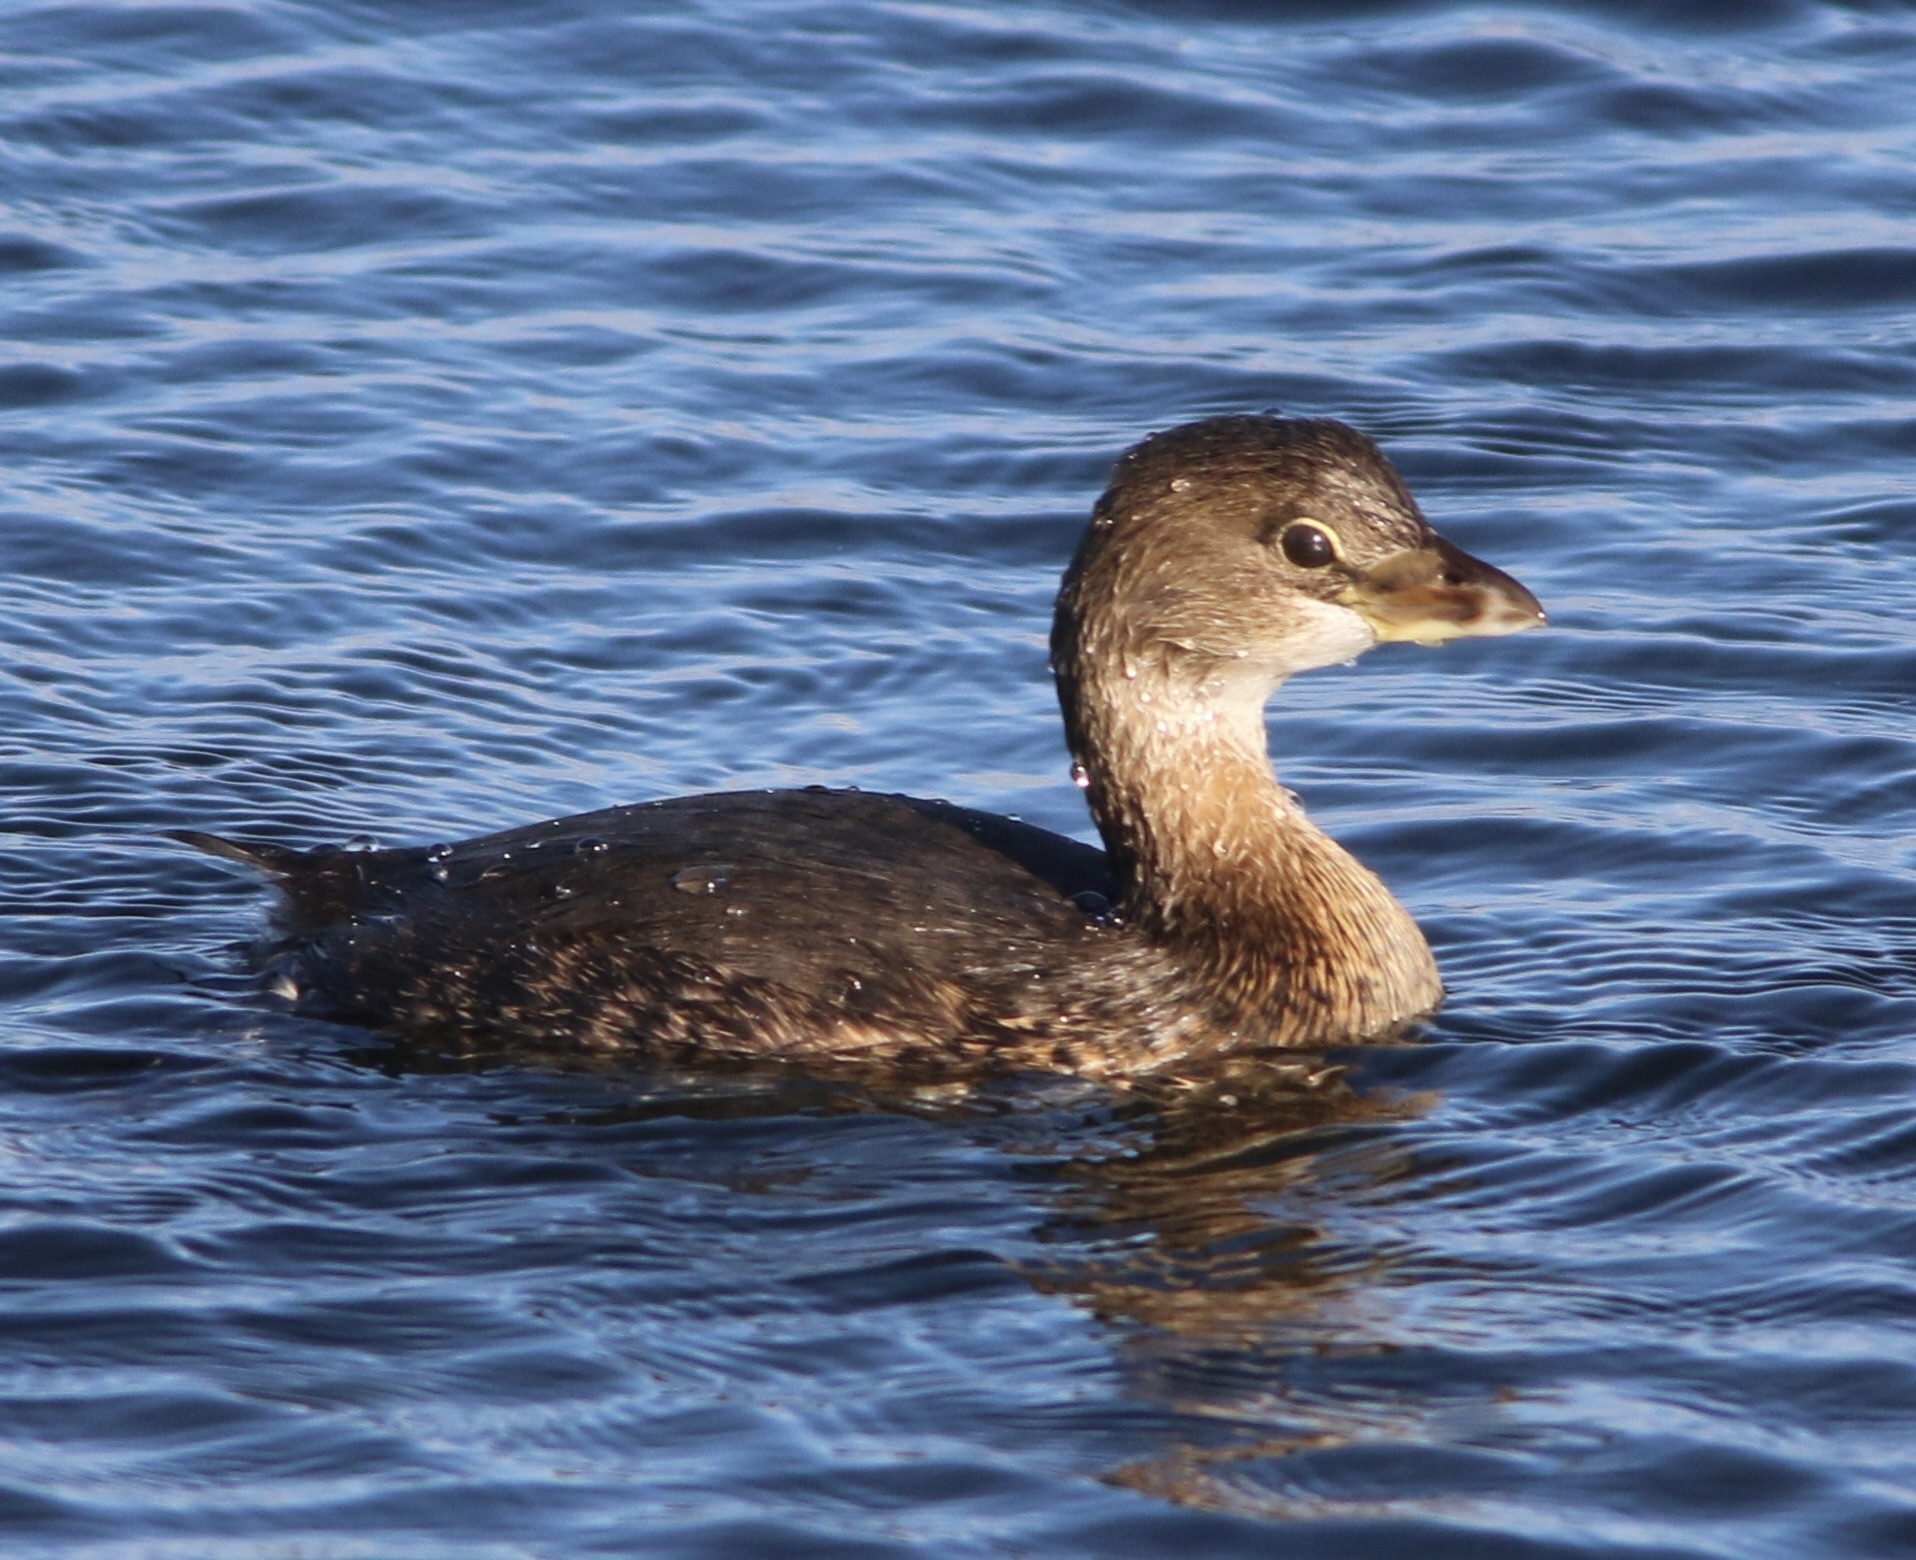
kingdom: Animalia
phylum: Chordata
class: Aves
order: Podicipediformes
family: Podicipedidae
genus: Podilymbus
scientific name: Podilymbus podiceps
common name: Pied-billed grebe
